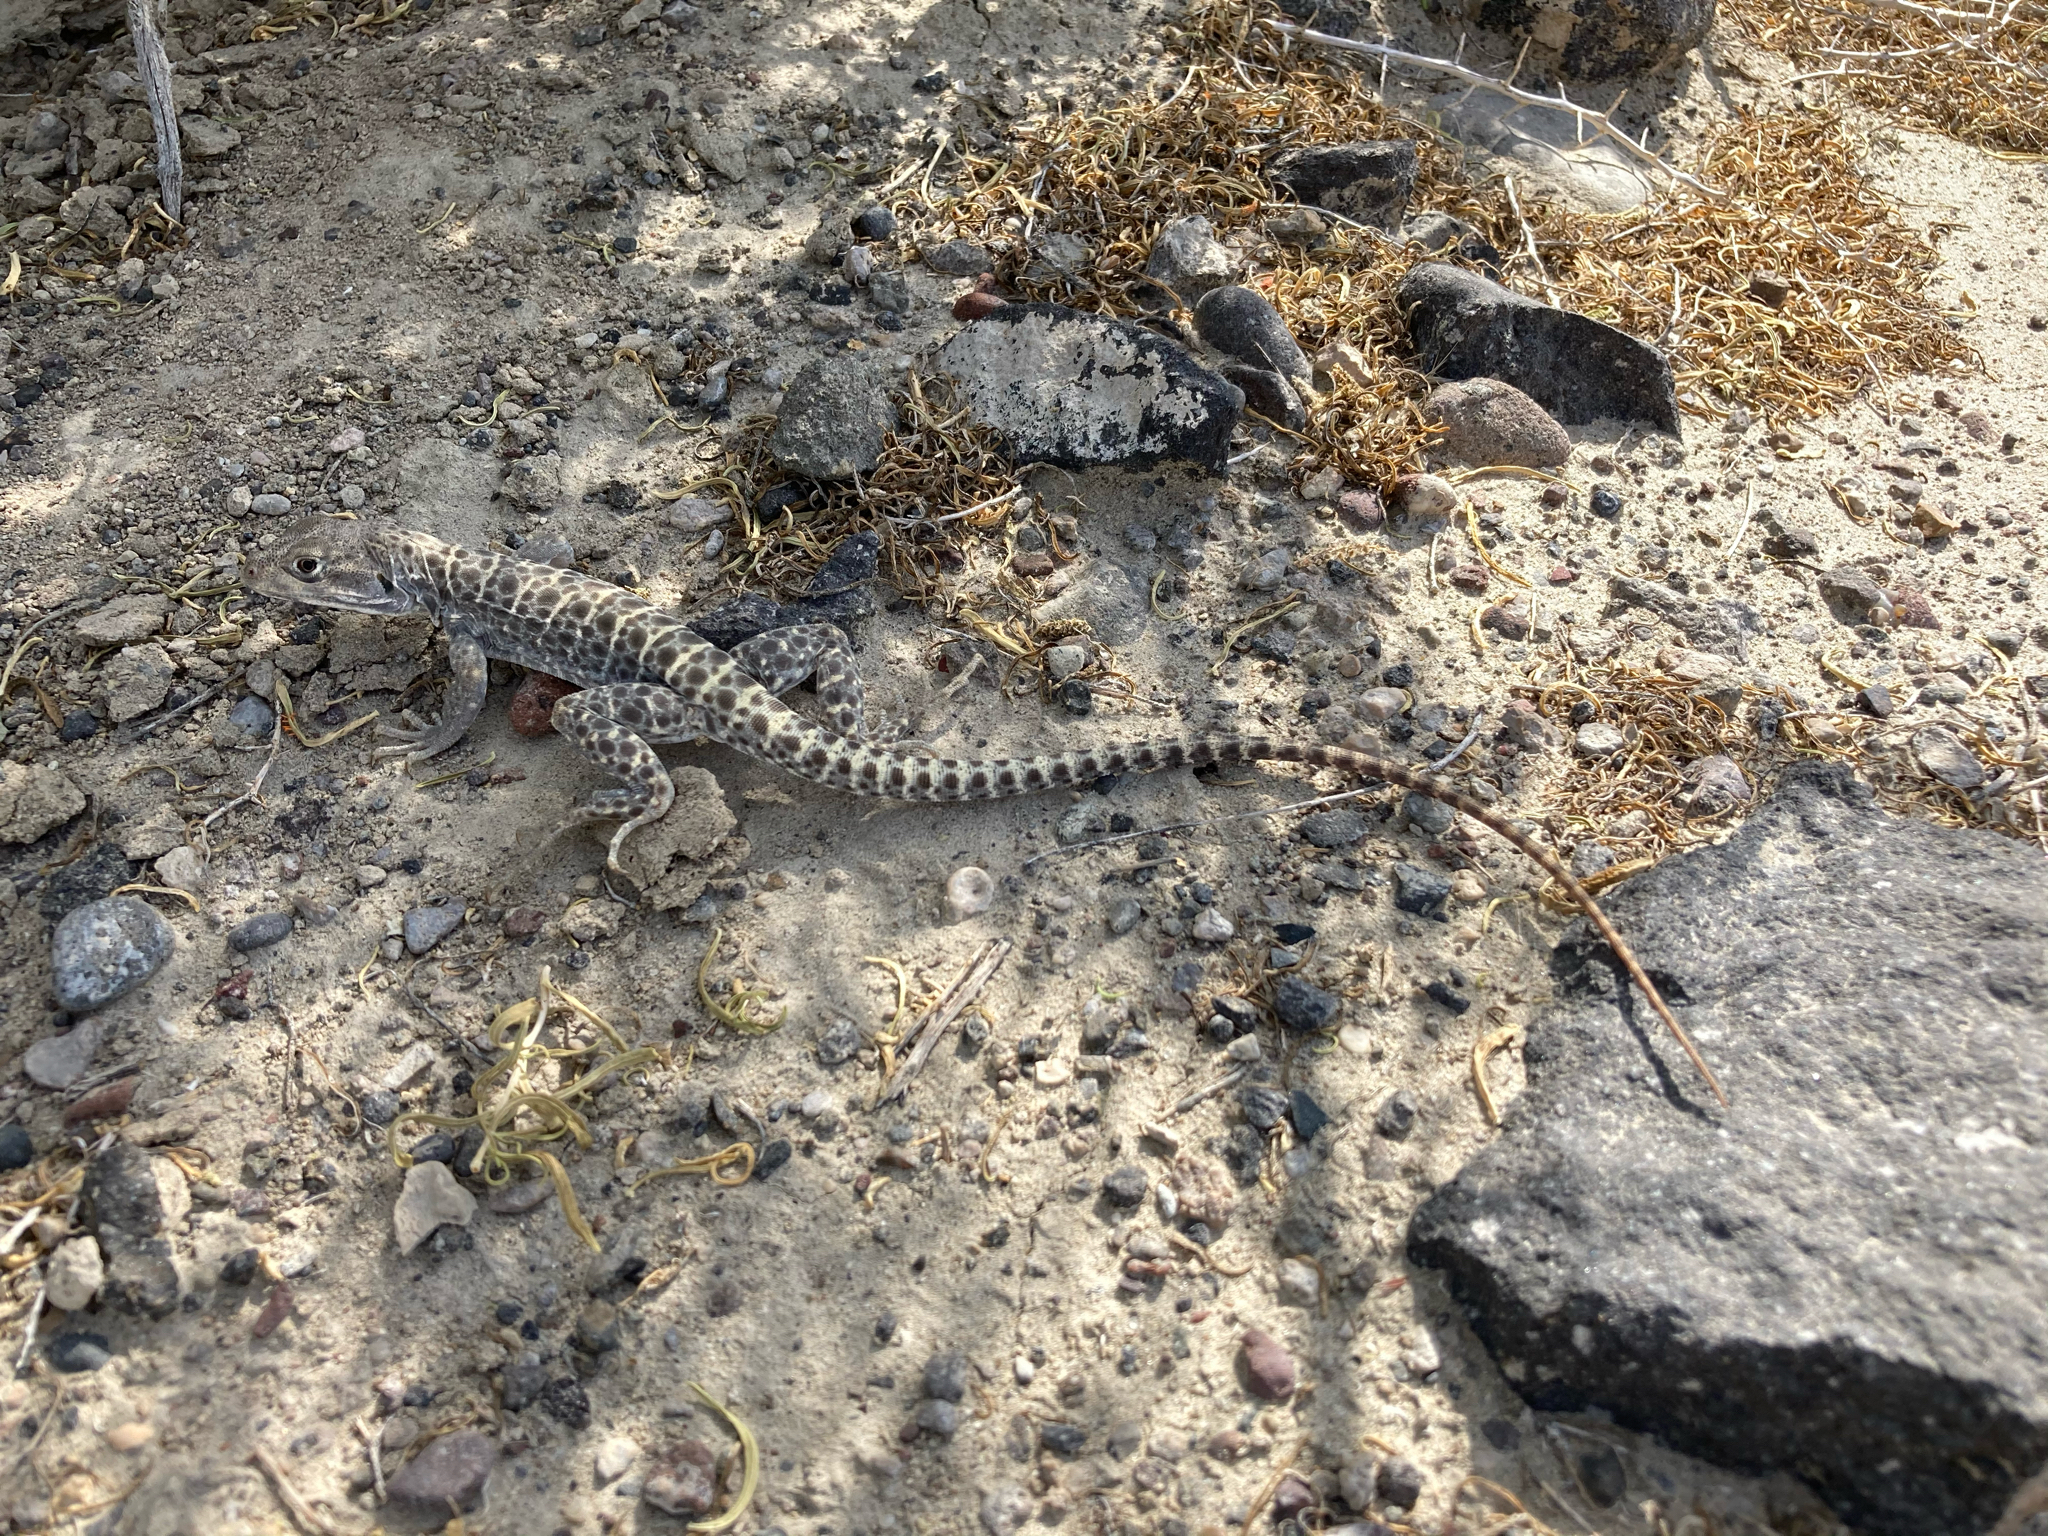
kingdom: Animalia
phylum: Chordata
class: Squamata
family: Crotaphytidae
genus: Gambelia
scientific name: Gambelia wislizenii
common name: Longnose leopard lizard
